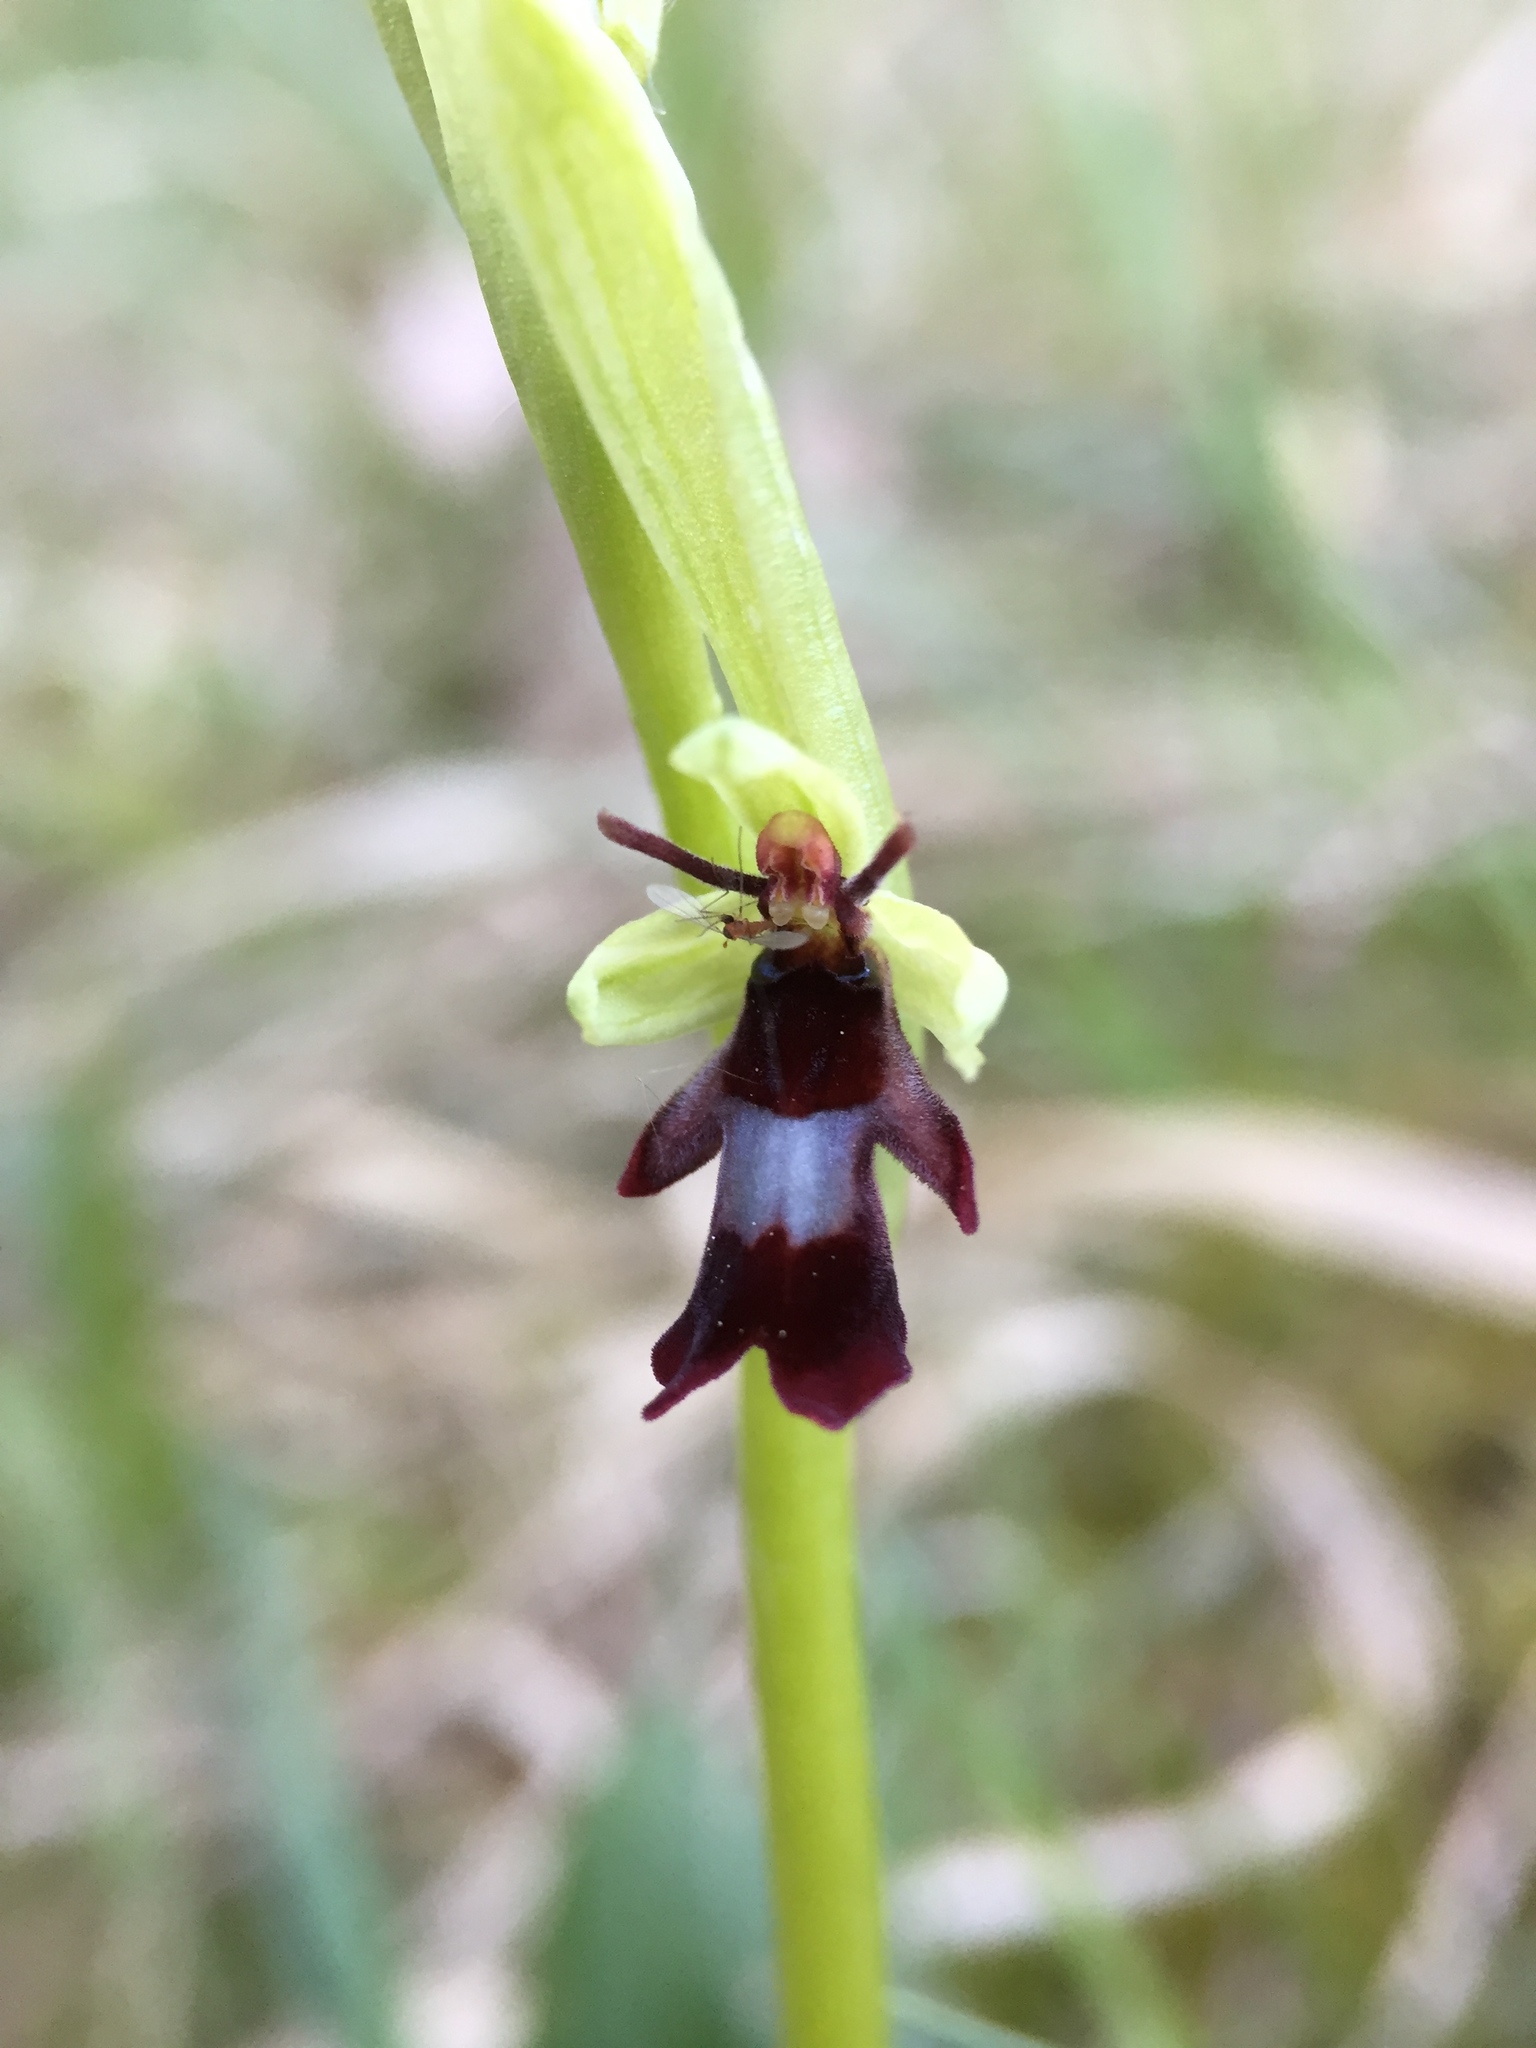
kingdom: Plantae
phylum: Tracheophyta
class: Liliopsida
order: Asparagales
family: Orchidaceae
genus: Ophrys
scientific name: Ophrys insectifera
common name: Fly orchid
